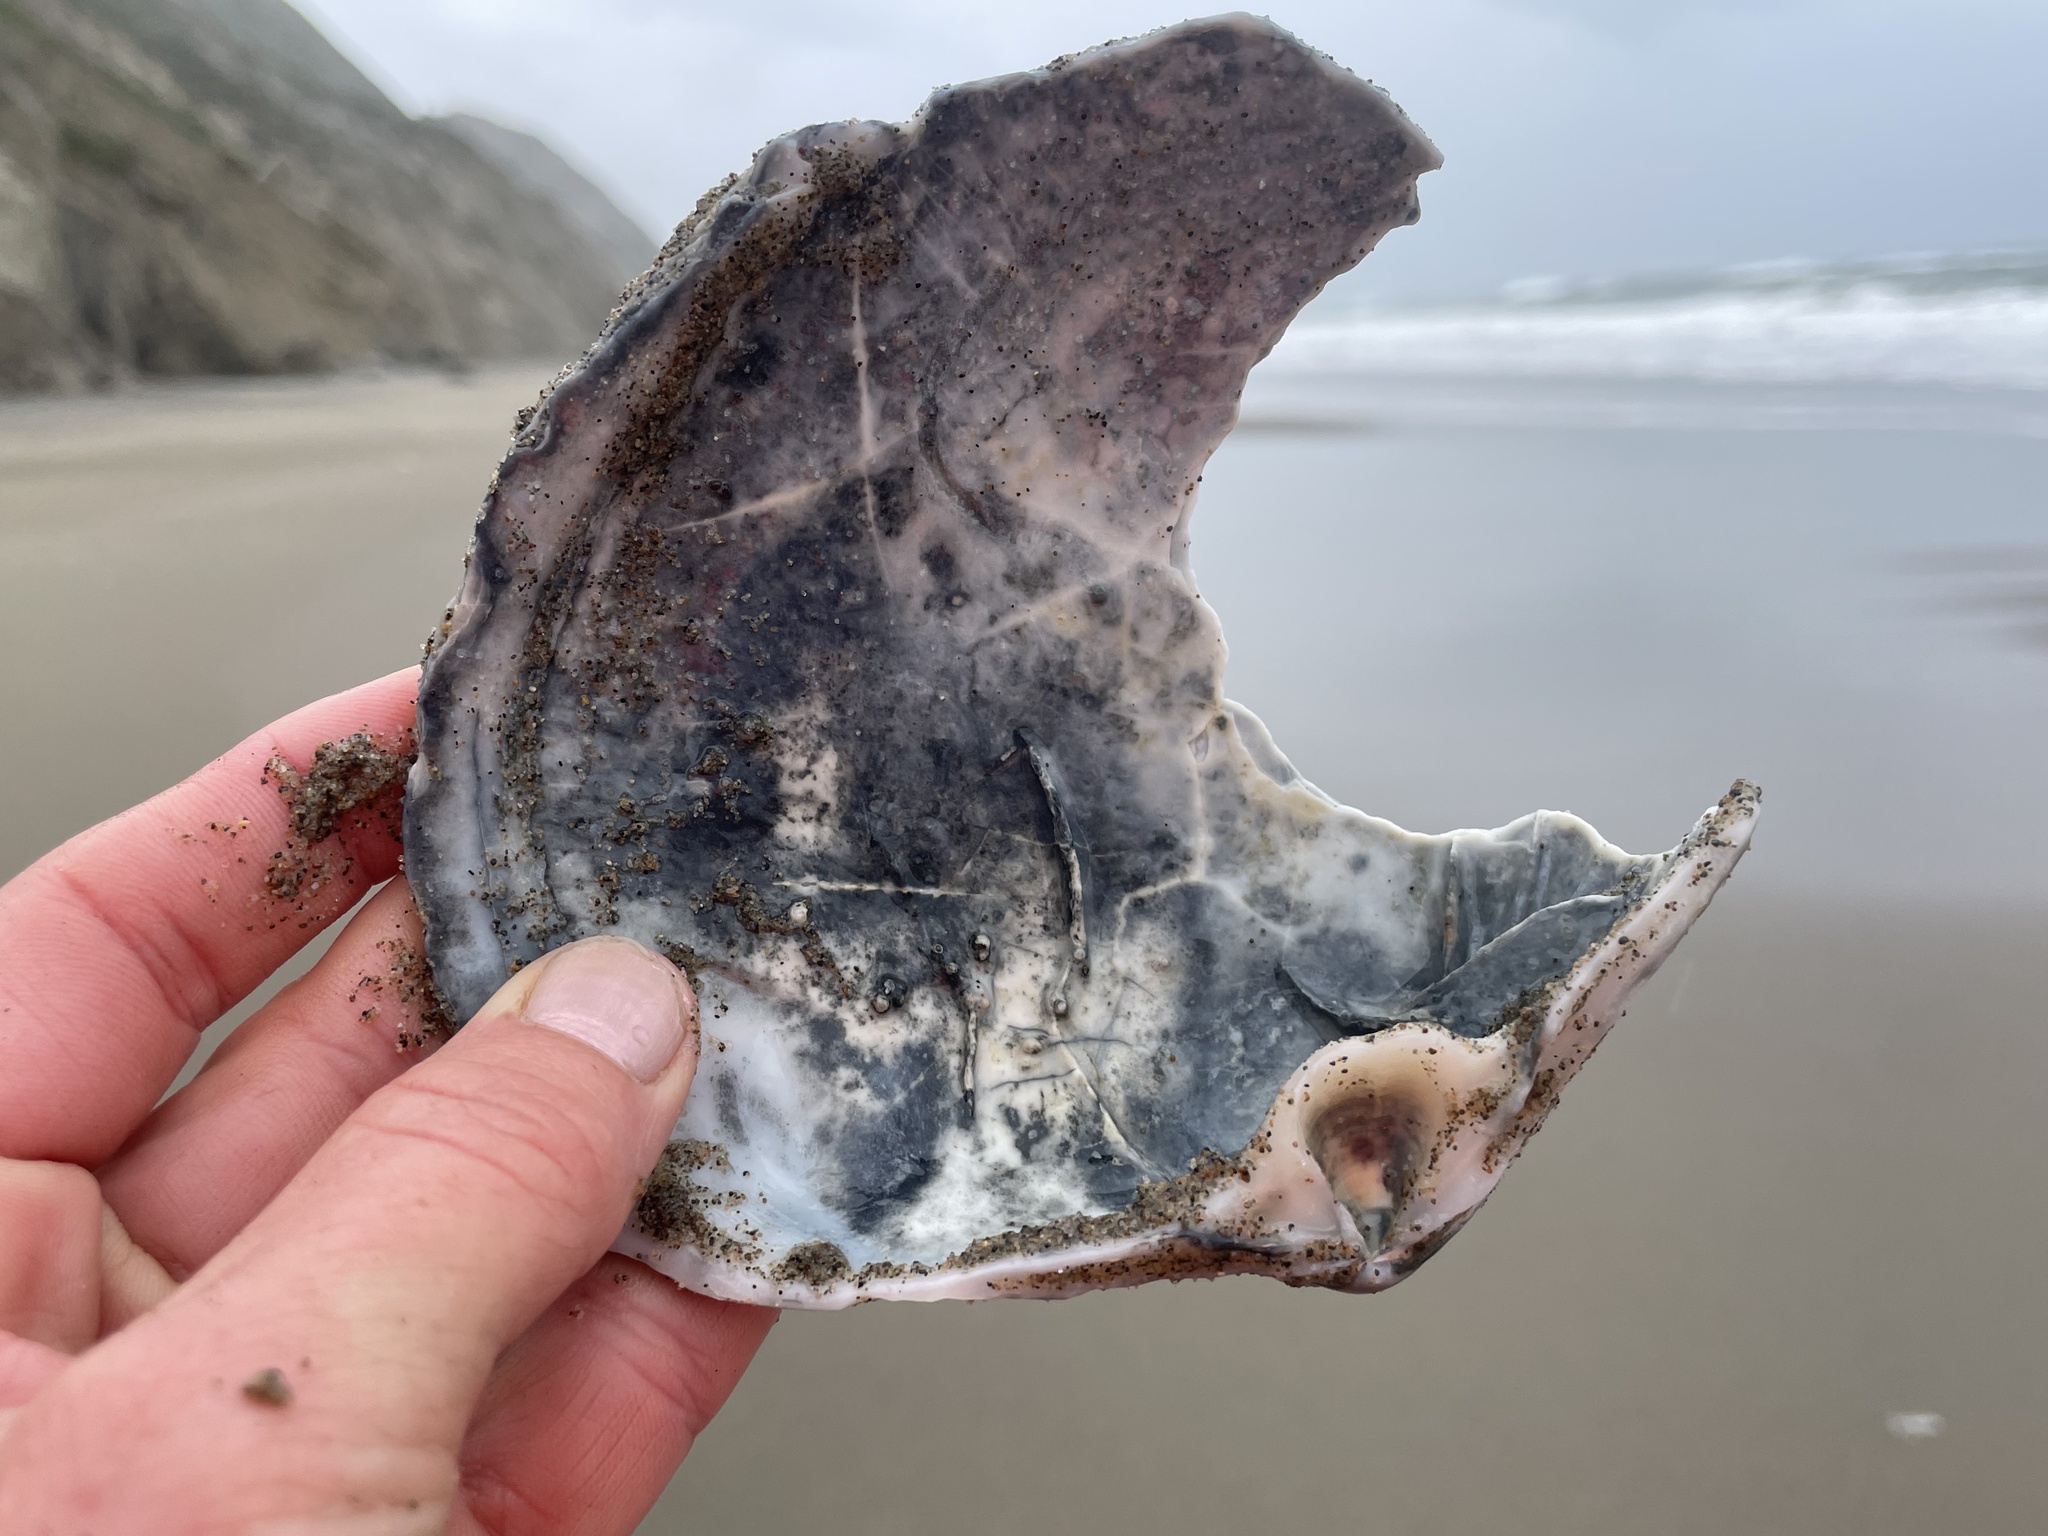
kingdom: Animalia
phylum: Mollusca
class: Bivalvia
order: Venerida
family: Mactridae
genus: Mactromeris
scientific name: Mactromeris catilliformis
